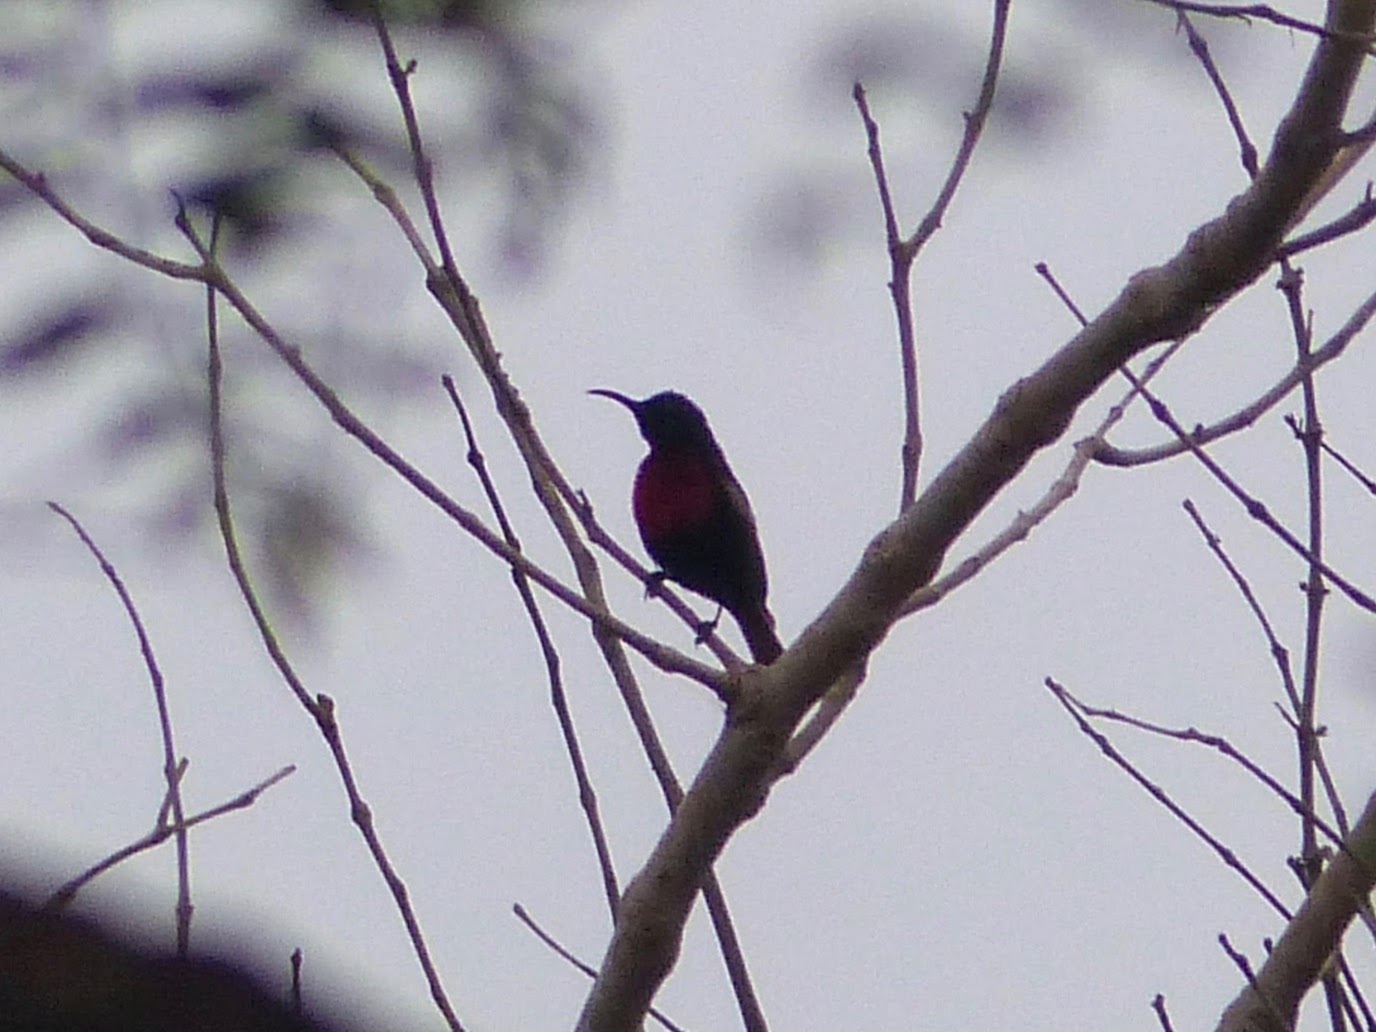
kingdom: Animalia
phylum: Chordata
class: Aves
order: Passeriformes
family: Nectariniidae
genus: Chalcomitra
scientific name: Chalcomitra senegalensis
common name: Scarlet-chested sunbird
